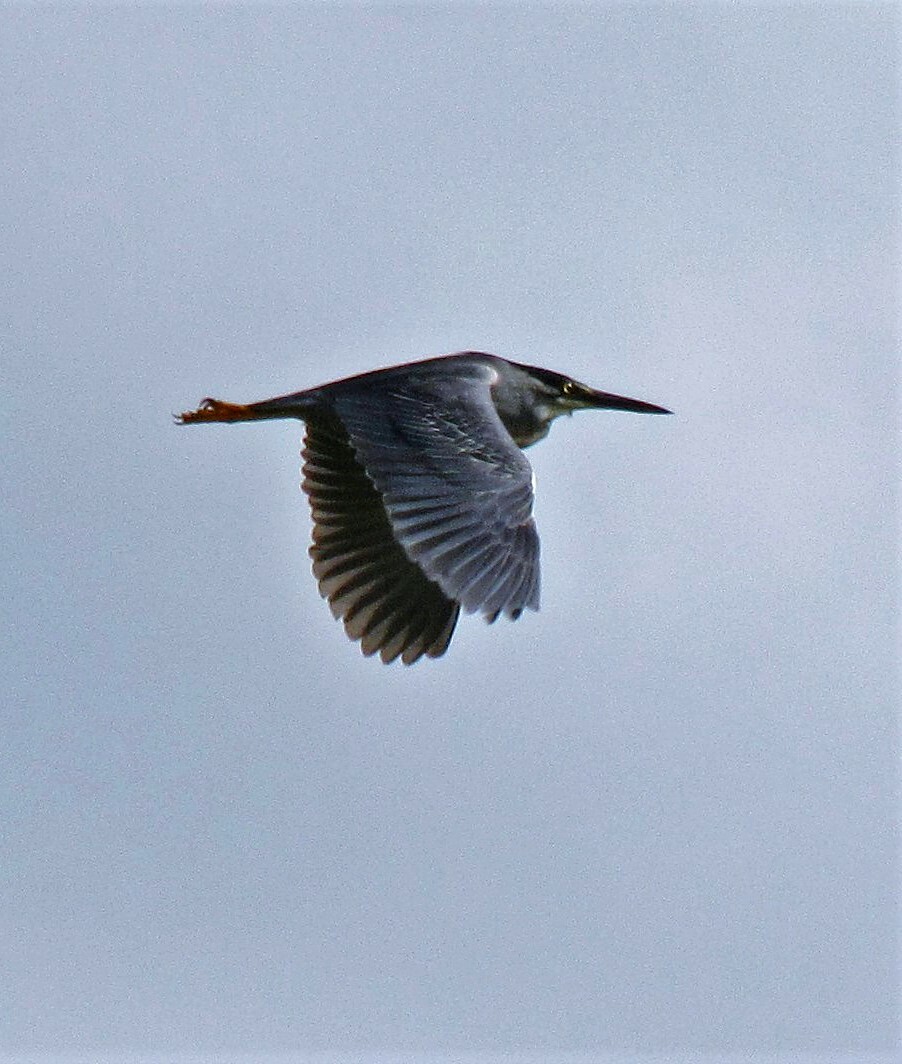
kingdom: Animalia
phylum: Chordata
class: Aves
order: Pelecaniformes
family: Ardeidae
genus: Butorides
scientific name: Butorides striata
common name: Striated heron
